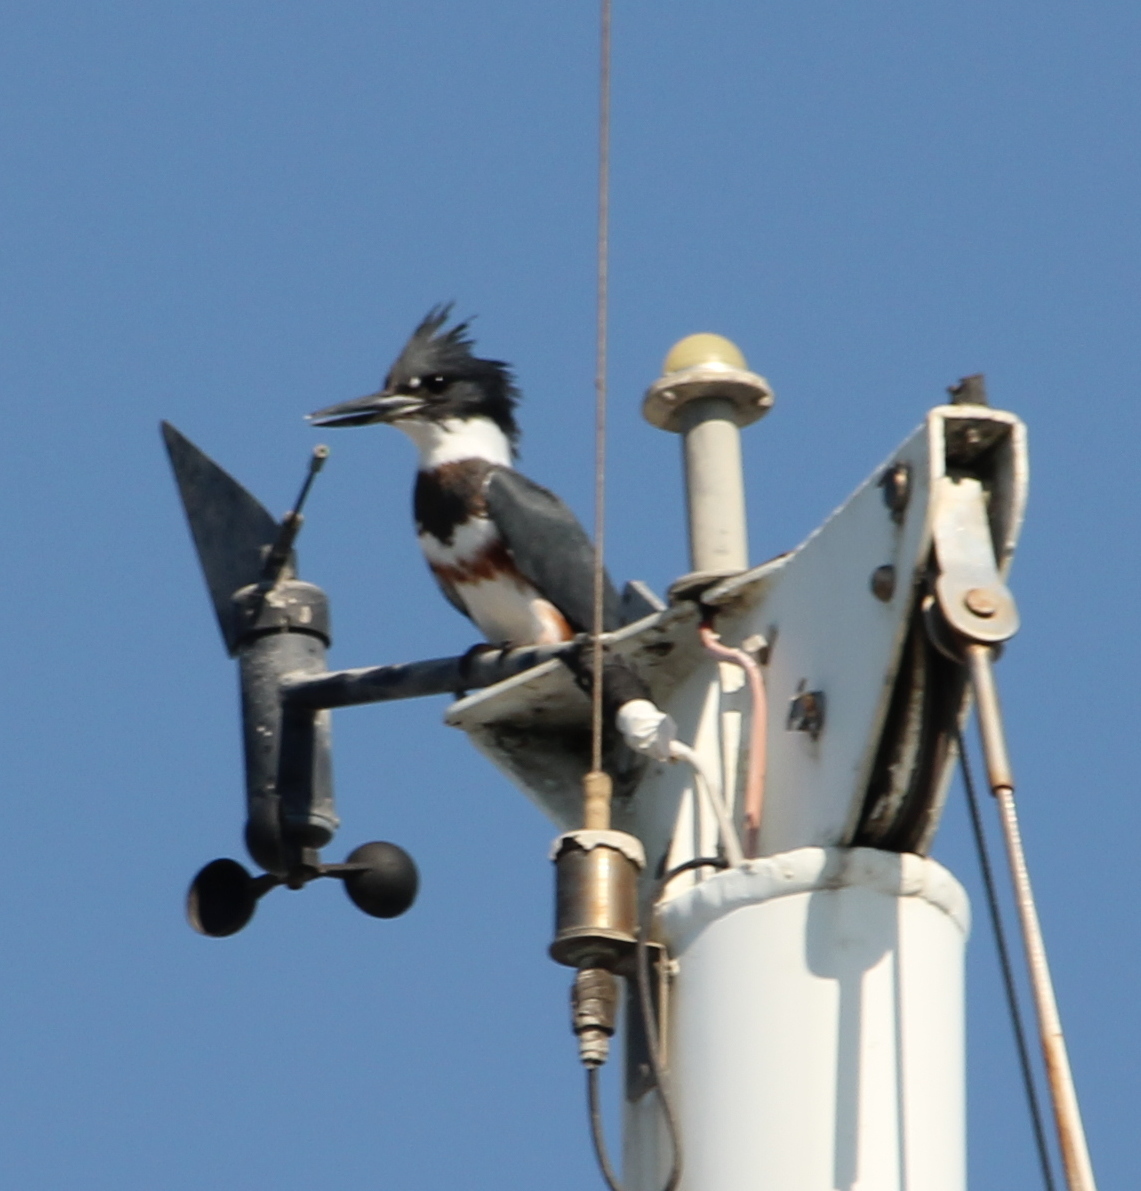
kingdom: Animalia
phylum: Chordata
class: Aves
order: Coraciiformes
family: Alcedinidae
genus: Megaceryle
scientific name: Megaceryle alcyon
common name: Belted kingfisher
